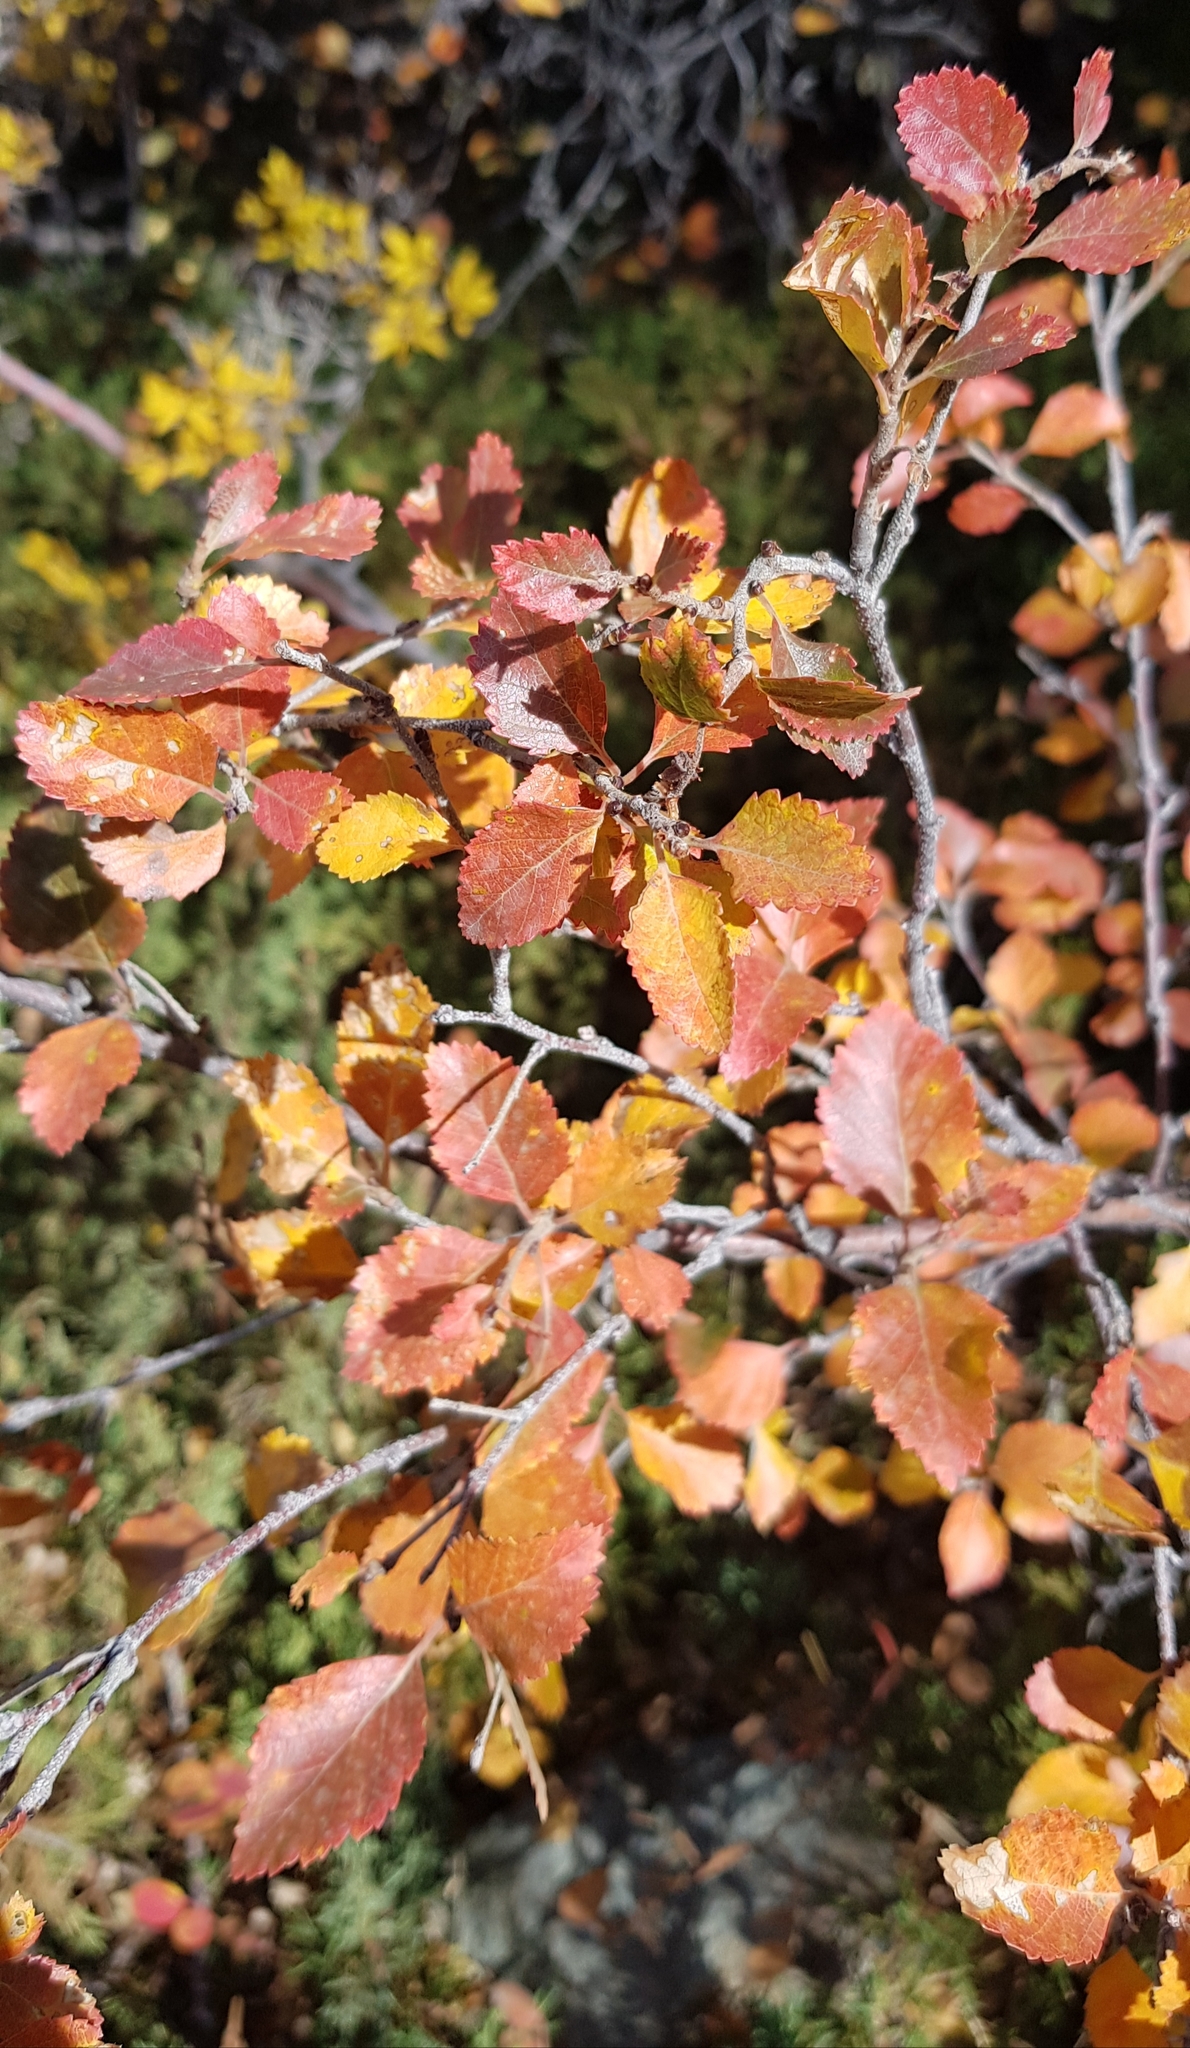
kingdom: Plantae
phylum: Tracheophyta
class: Magnoliopsida
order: Fagales
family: Betulaceae
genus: Betula
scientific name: Betula microphylla
